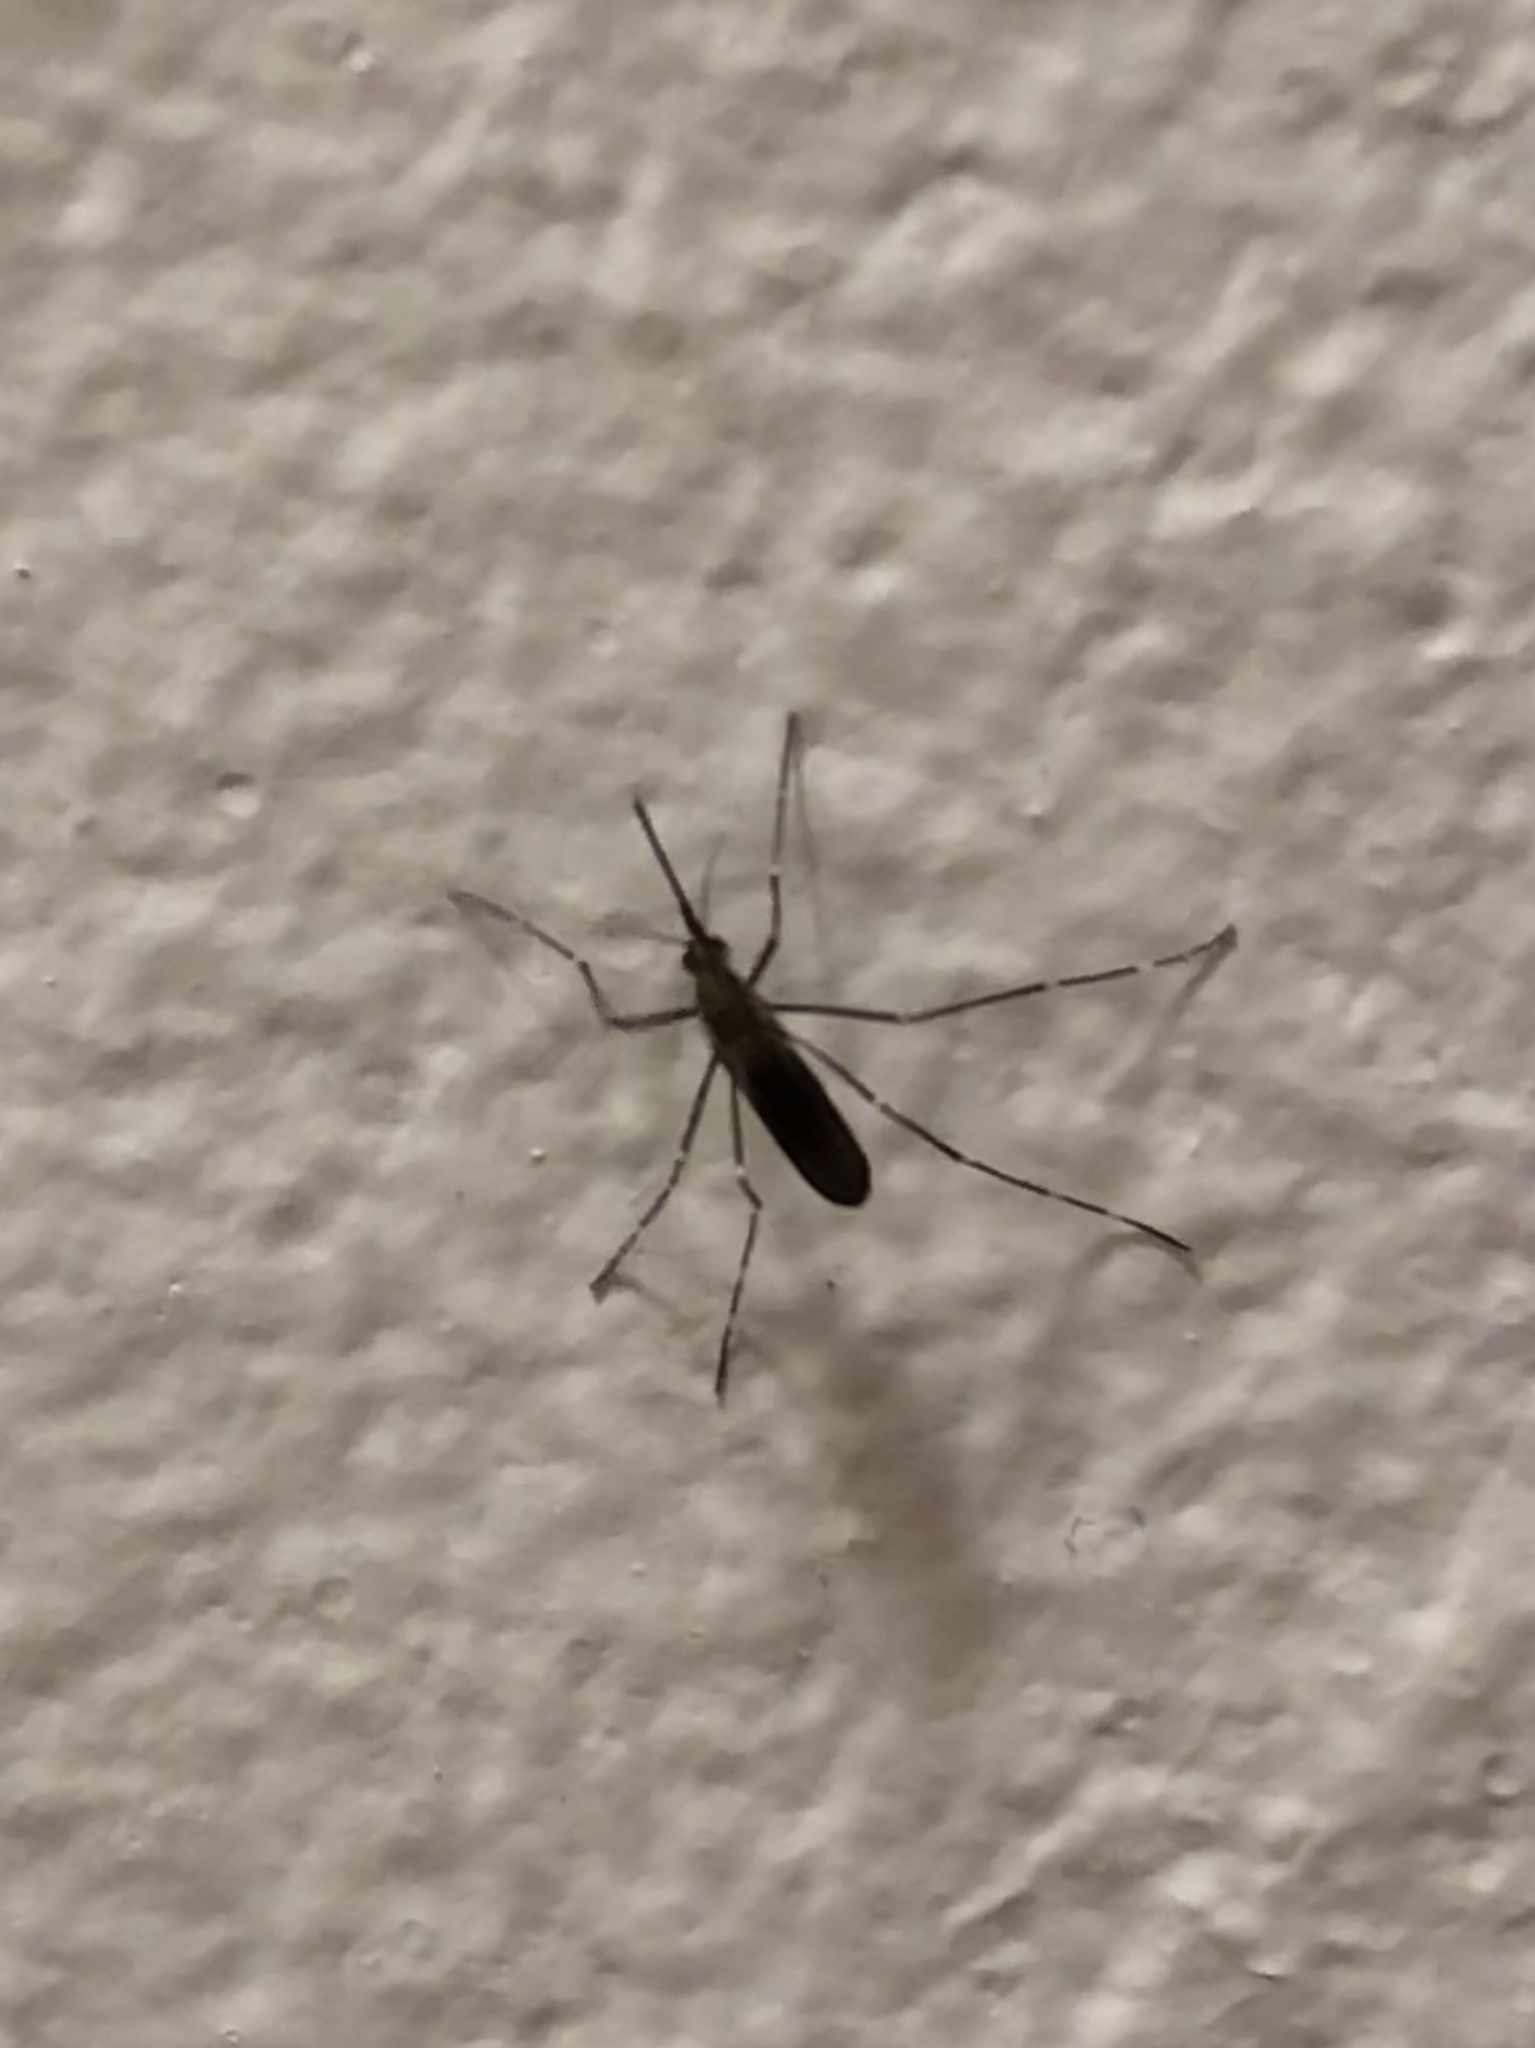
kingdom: Animalia
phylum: Arthropoda
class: Insecta
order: Diptera
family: Culicidae
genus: Aedes
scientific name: Aedes japonicus
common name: Asian bush mosquito
